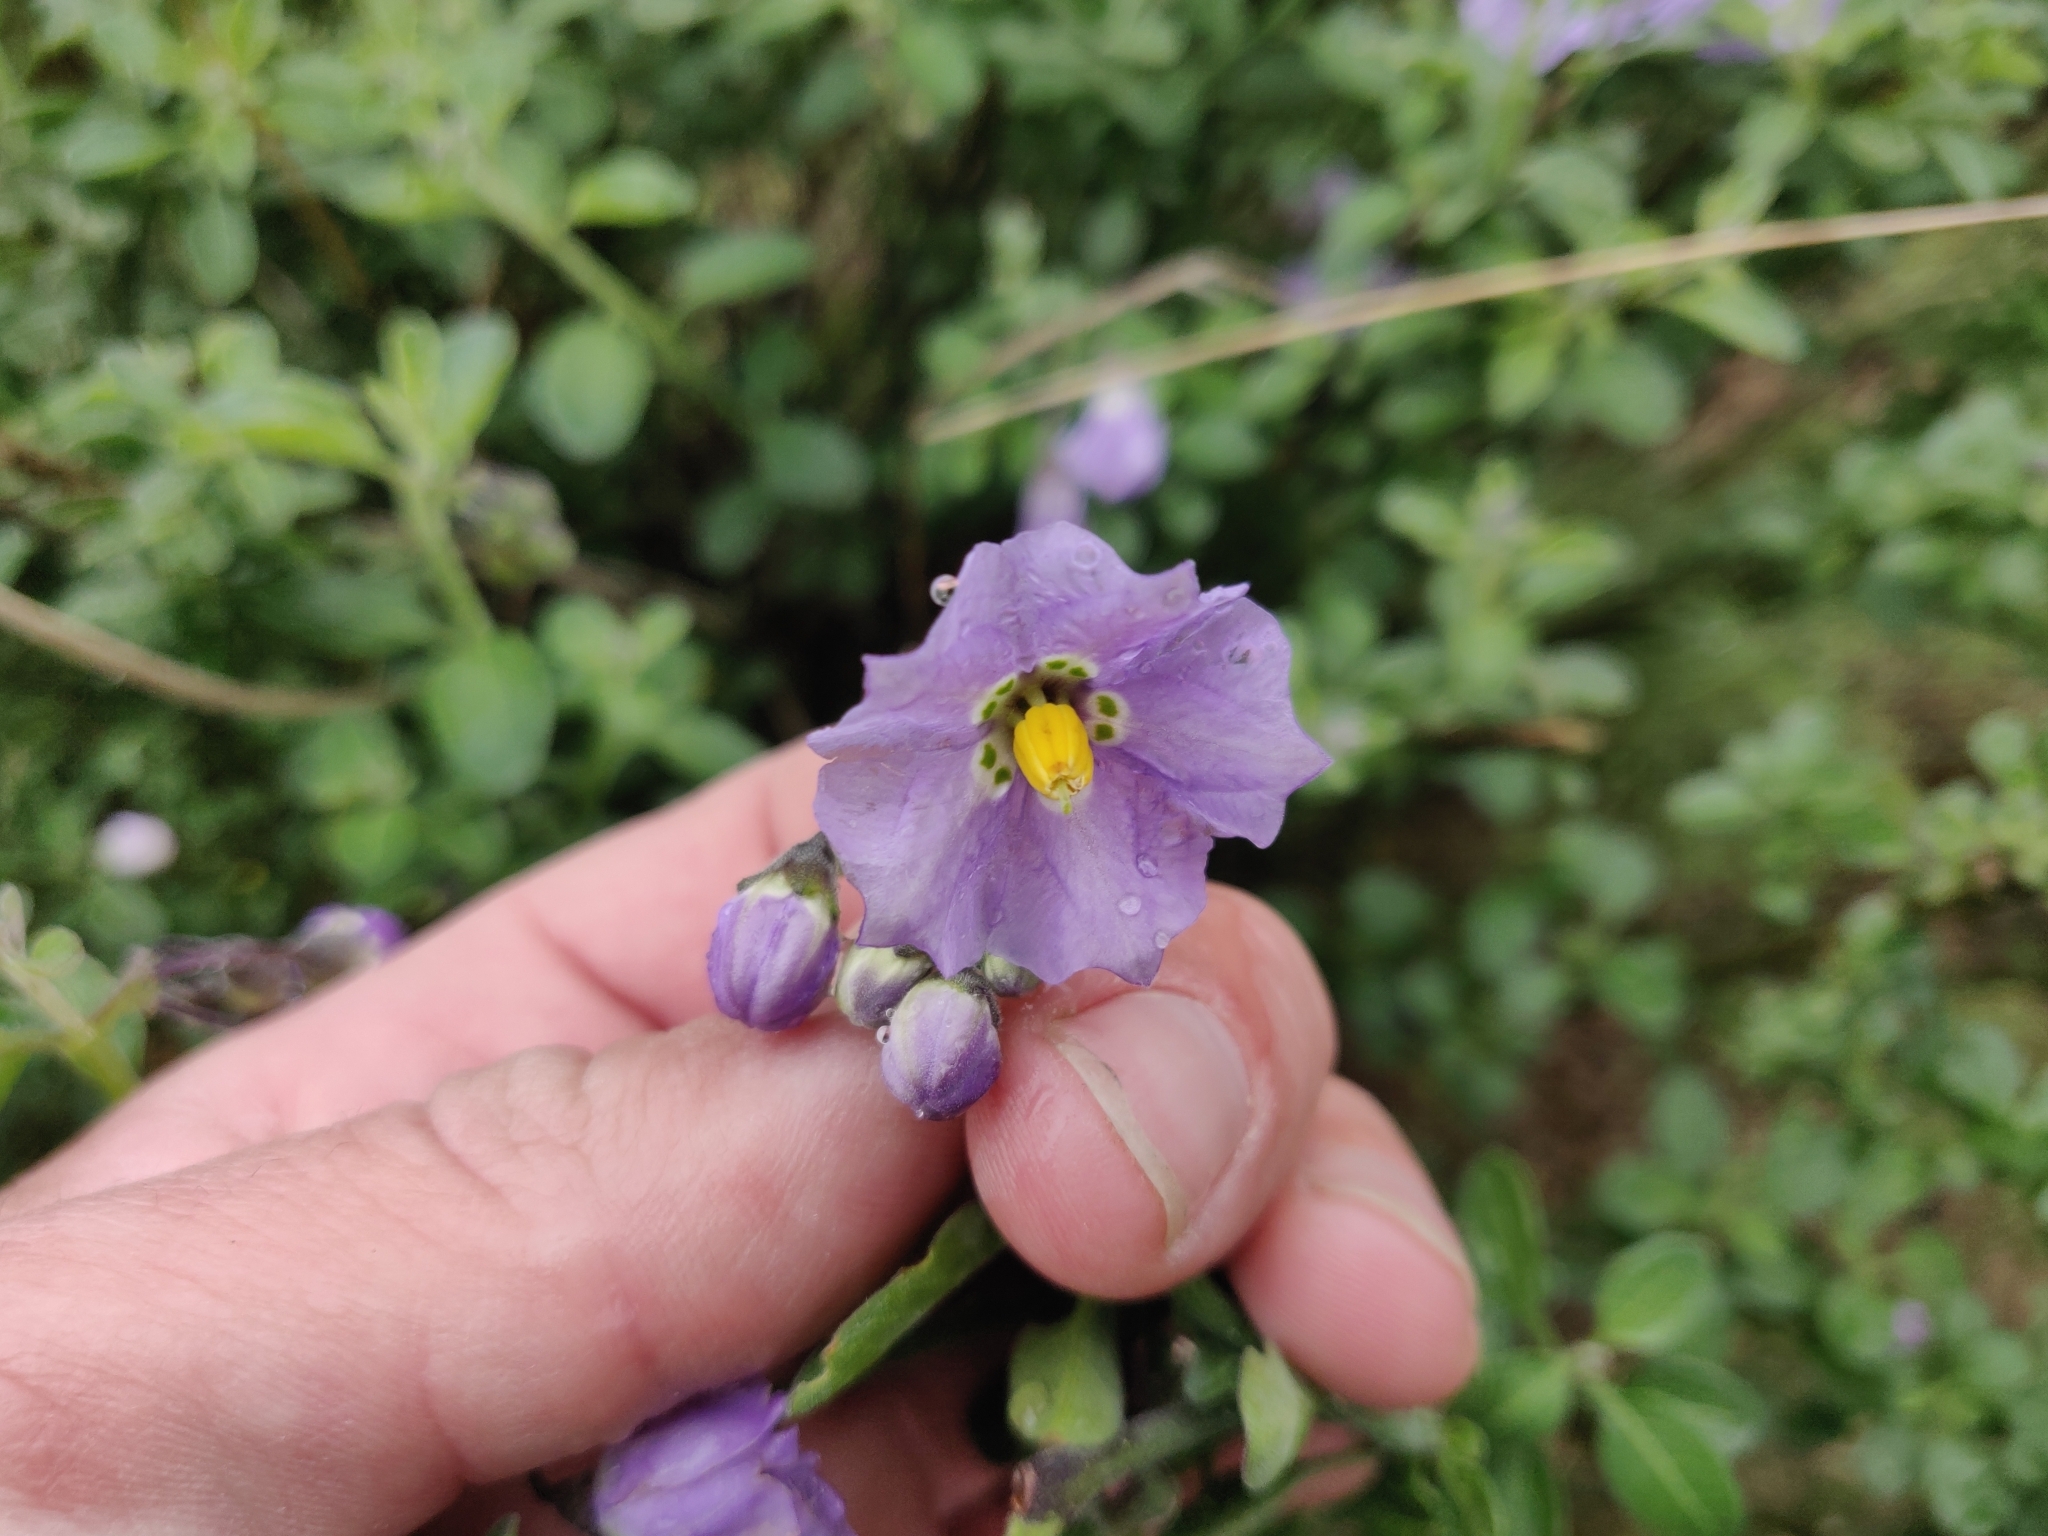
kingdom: Plantae
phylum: Tracheophyta
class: Magnoliopsida
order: Solanales
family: Solanaceae
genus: Solanum
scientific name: Solanum umbelliferum
